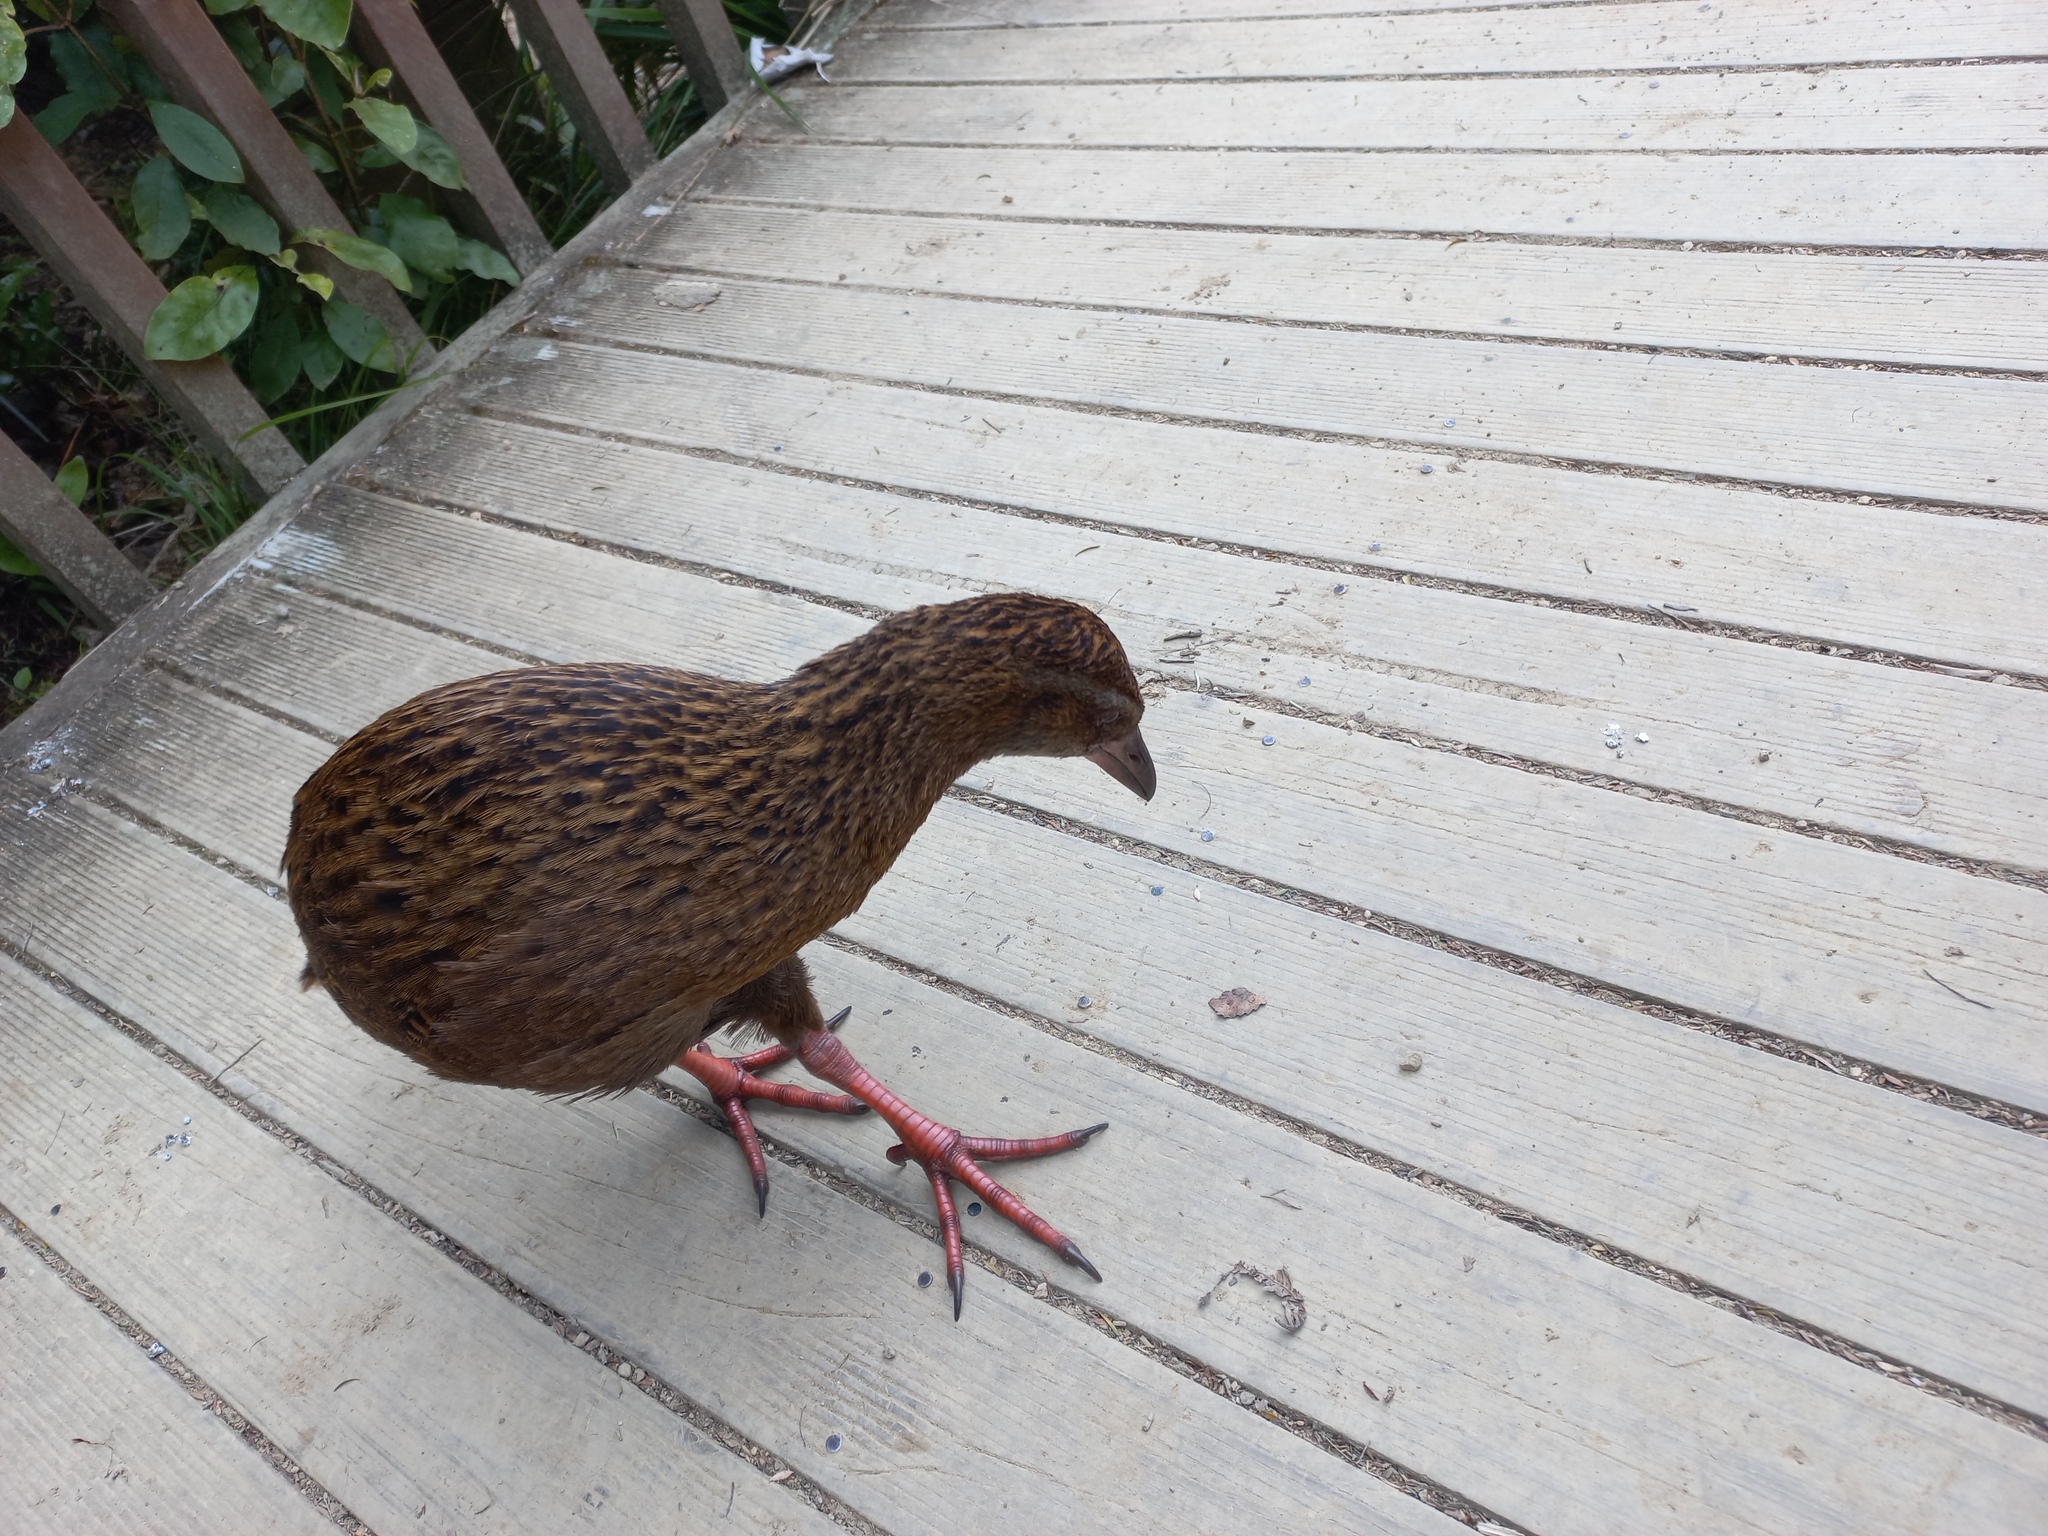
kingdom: Animalia
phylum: Chordata
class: Aves
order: Gruiformes
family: Rallidae
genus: Gallirallus
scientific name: Gallirallus australis
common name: Weka
